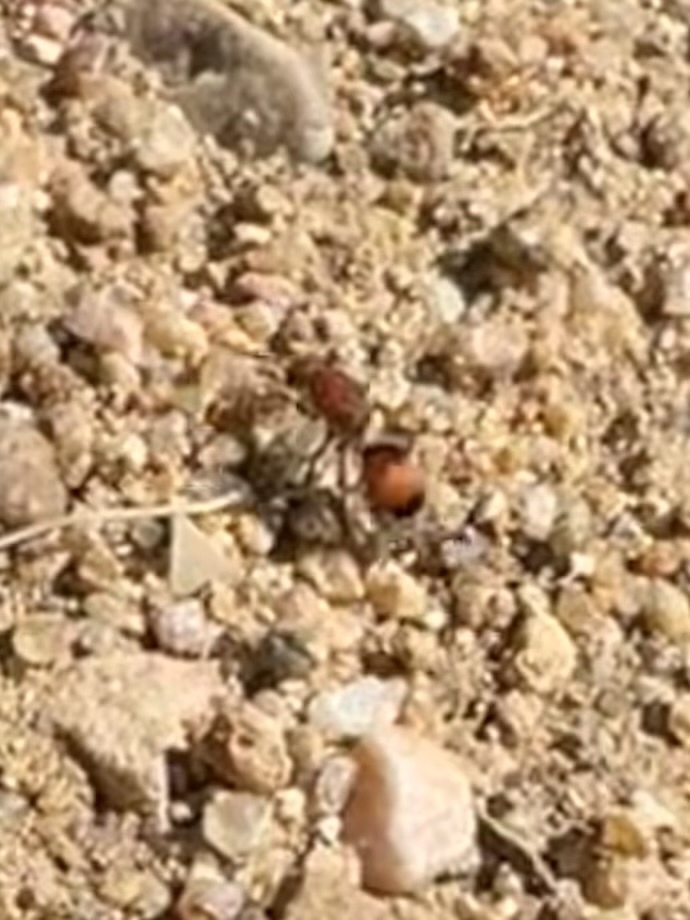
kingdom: Animalia
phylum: Arthropoda
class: Insecta
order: Hymenoptera
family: Mutillidae
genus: Dasymutilla
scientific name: Dasymutilla
